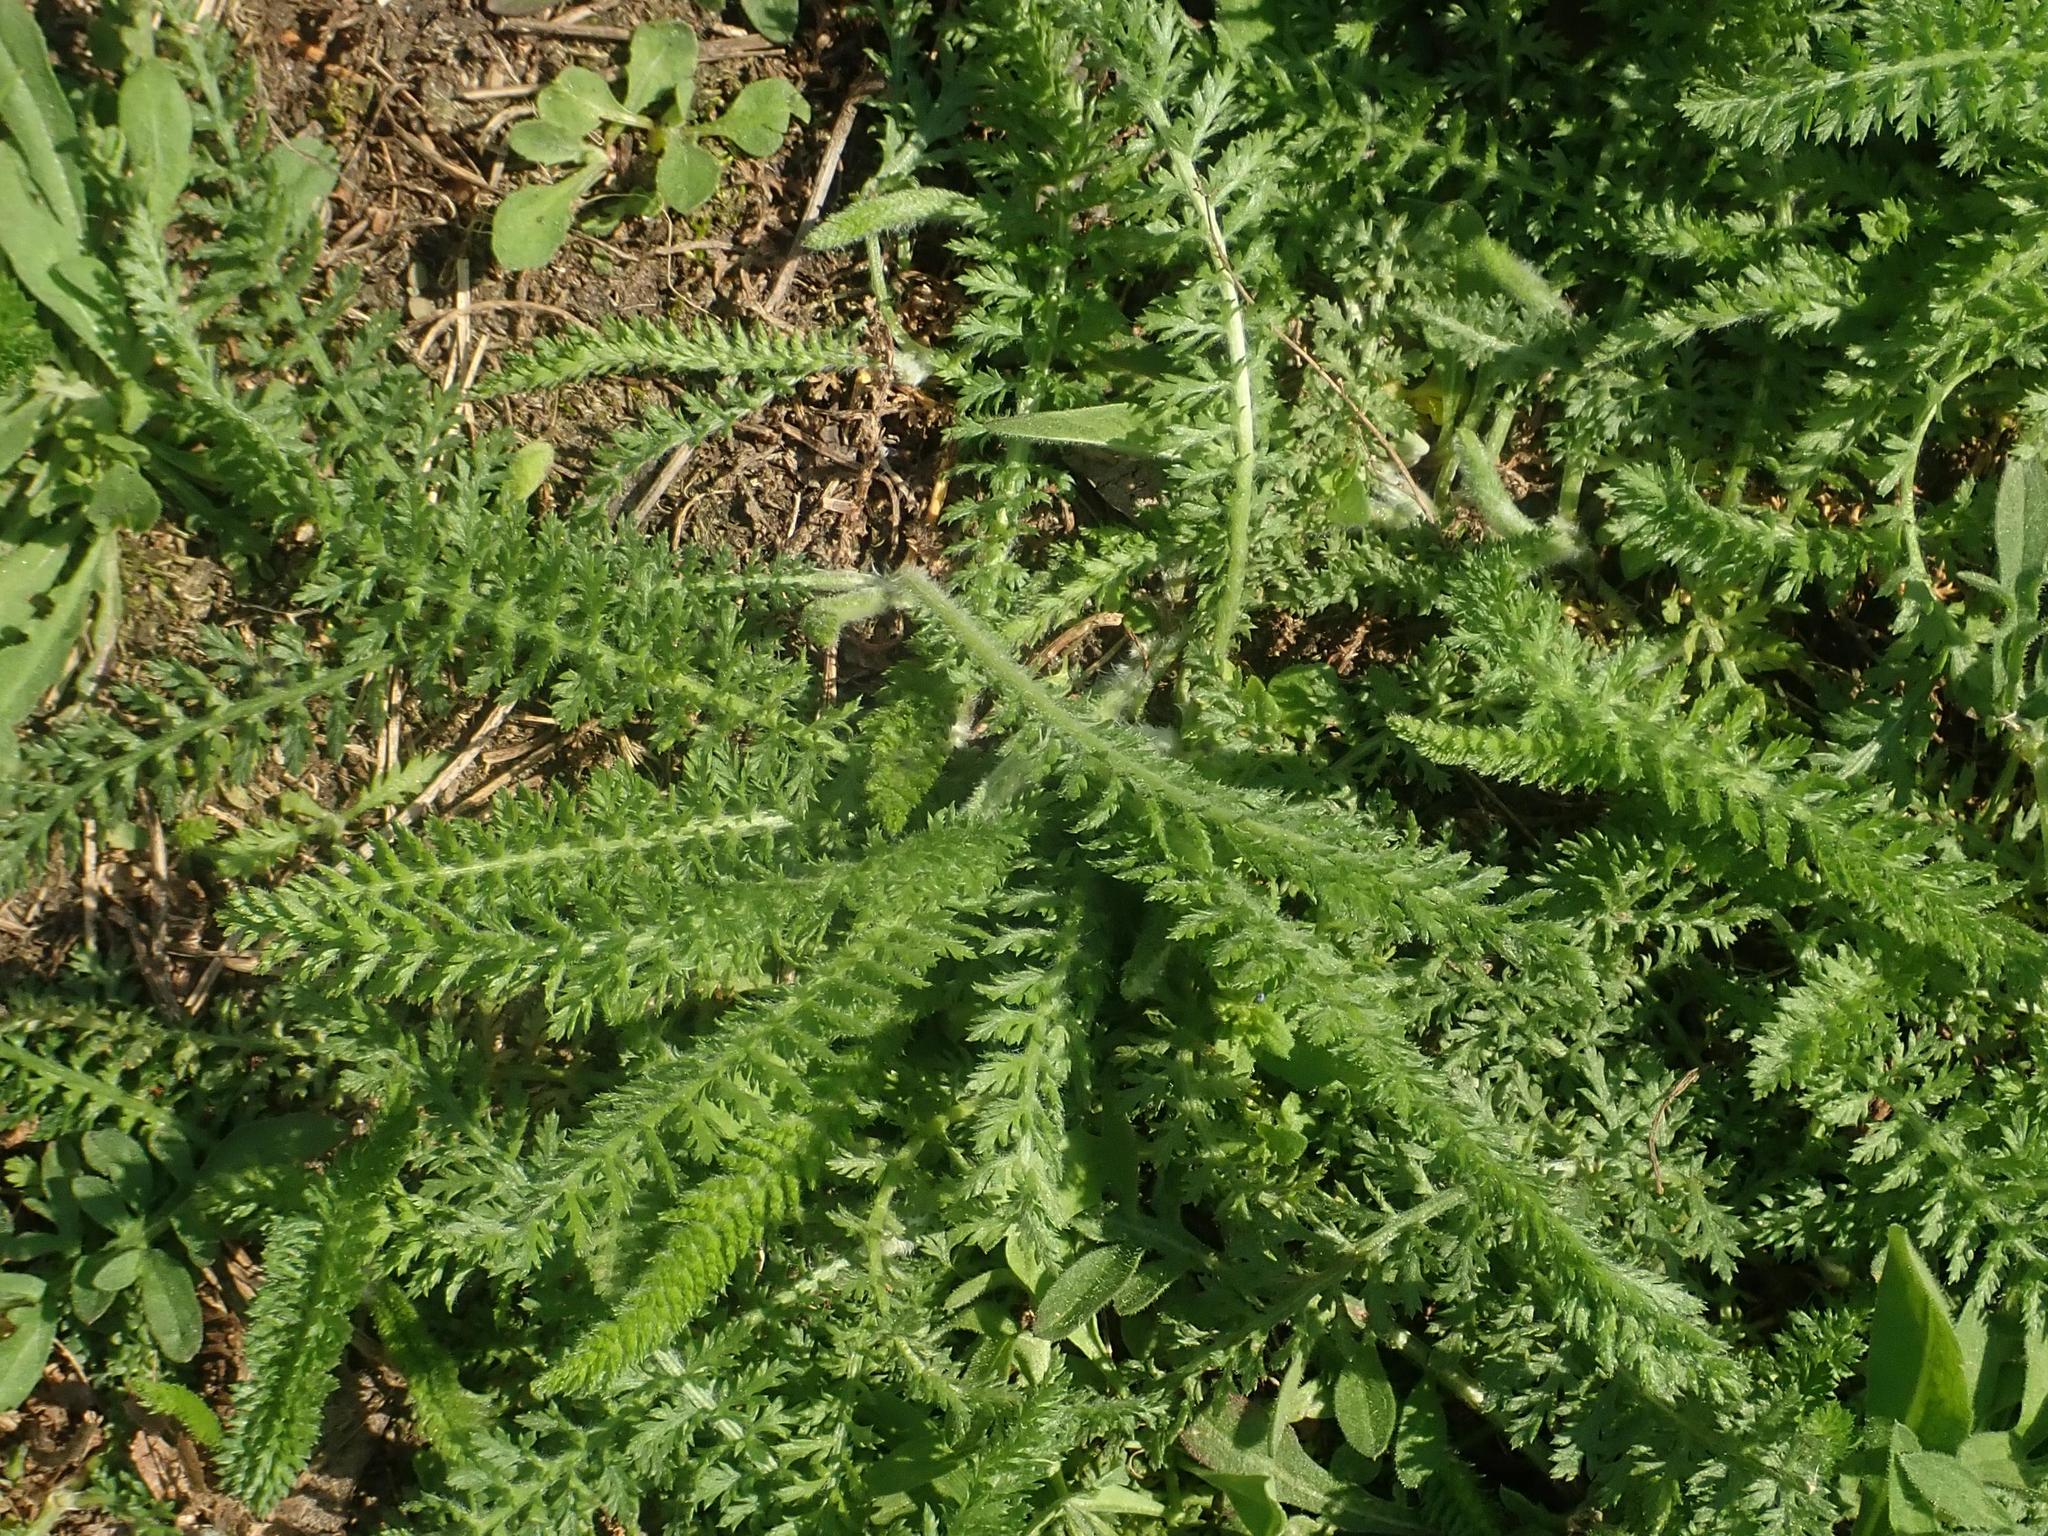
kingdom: Plantae
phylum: Tracheophyta
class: Magnoliopsida
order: Asterales
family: Asteraceae
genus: Achillea
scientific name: Achillea millefolium
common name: Yarrow
